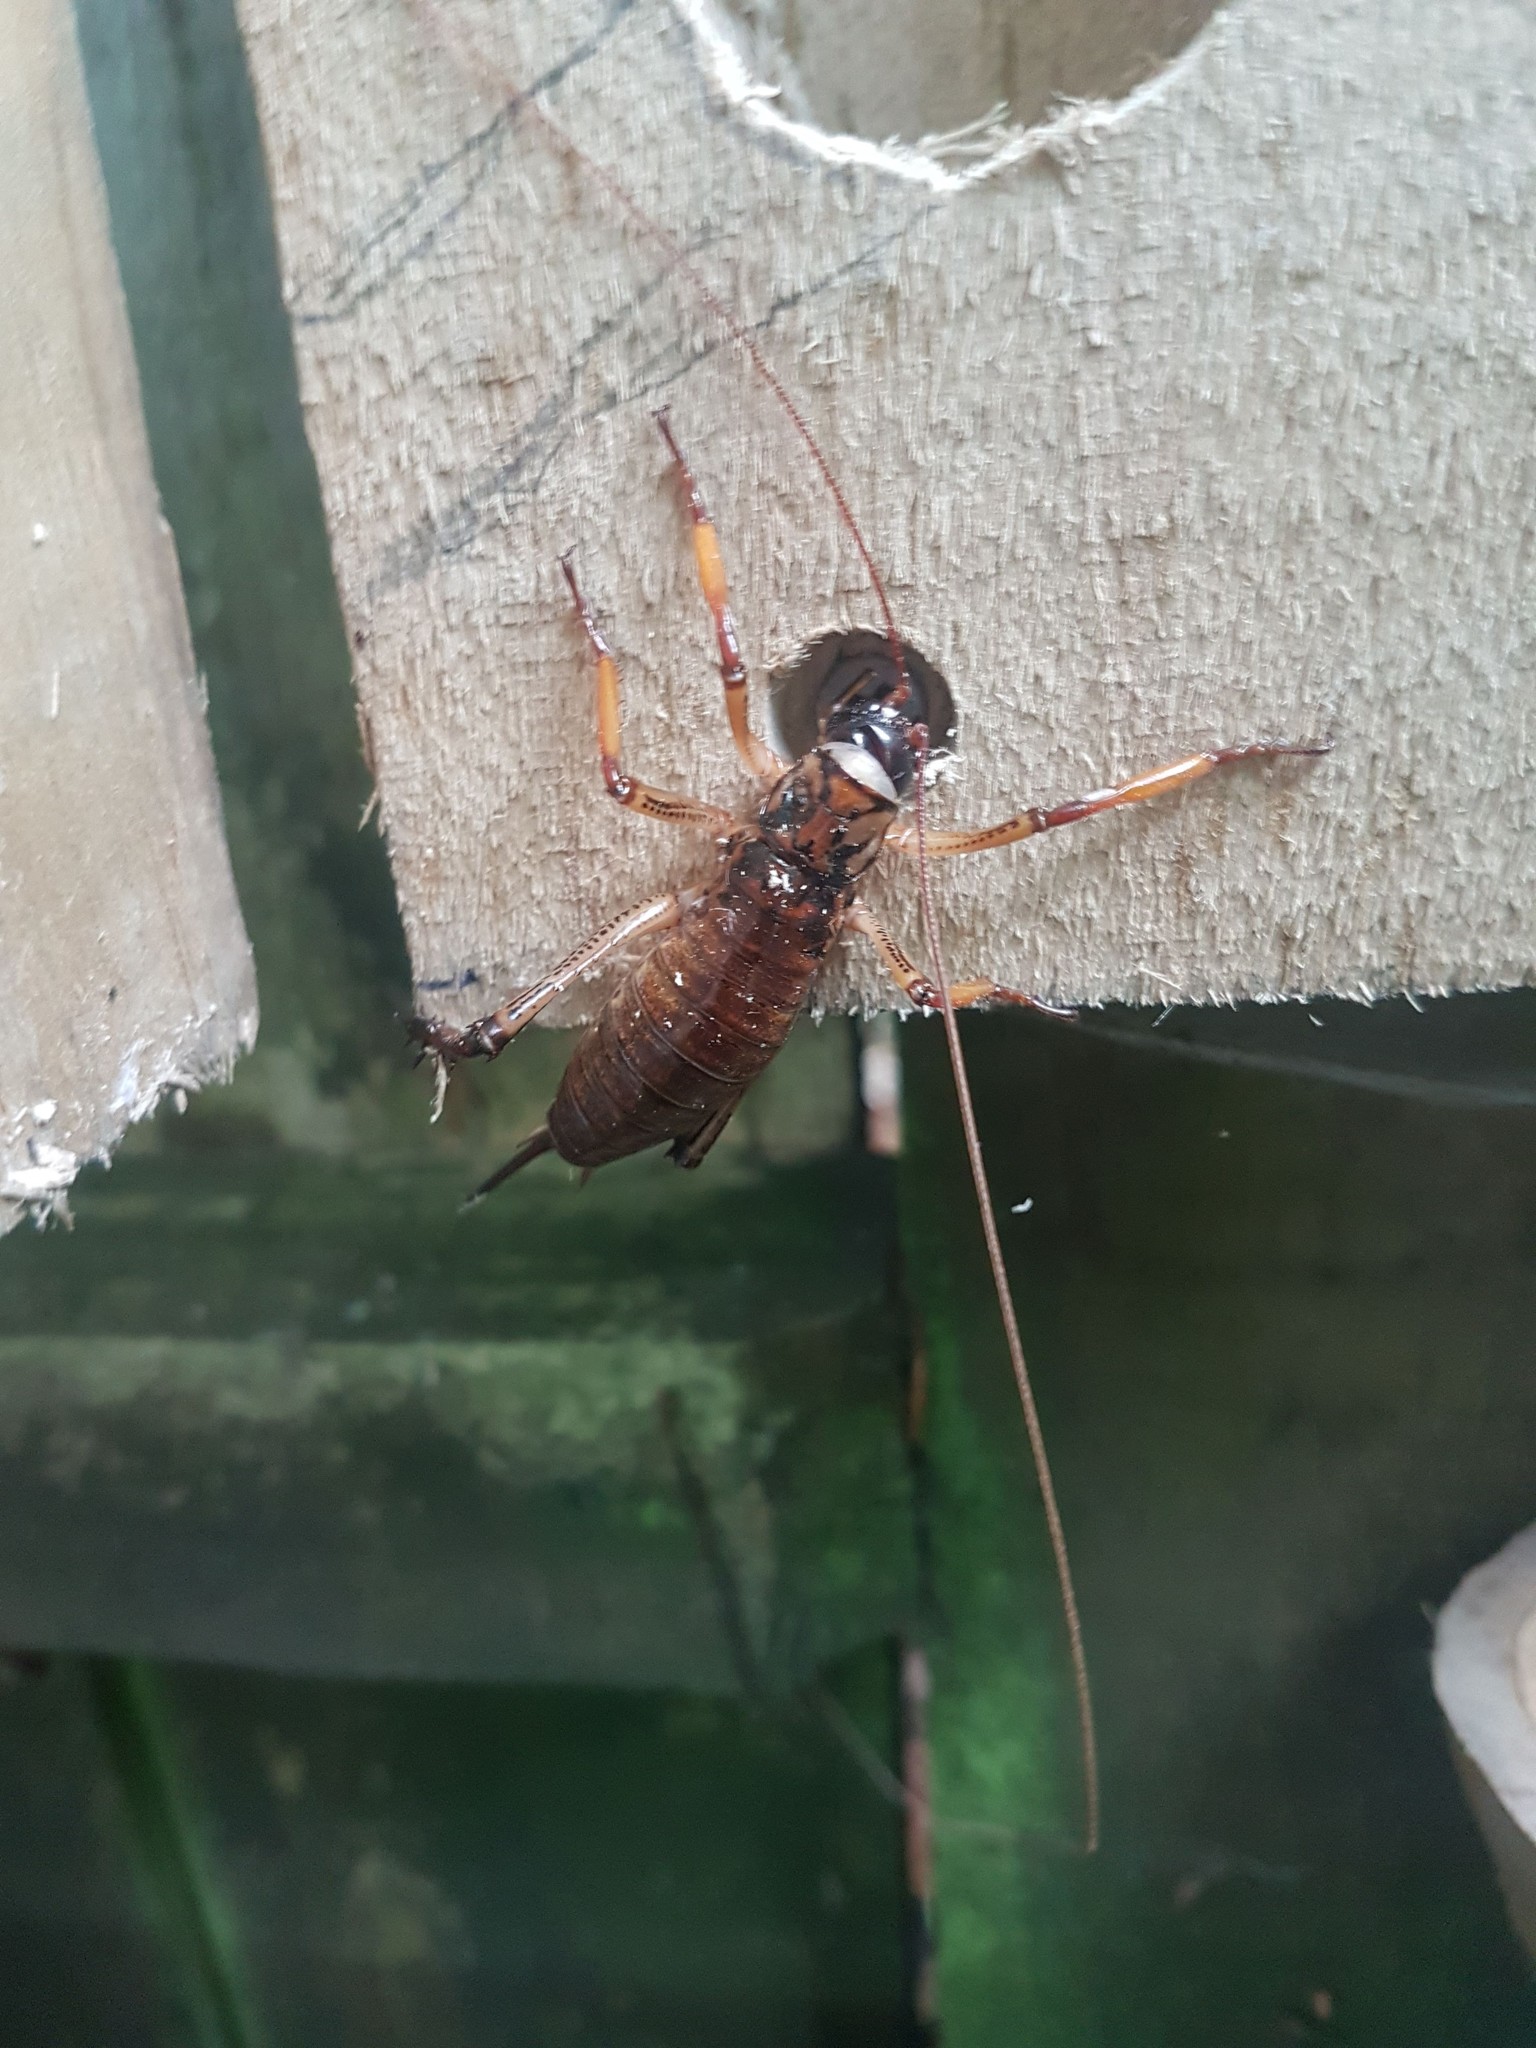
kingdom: Animalia
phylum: Arthropoda
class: Insecta
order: Orthoptera
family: Anostostomatidae
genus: Hemideina
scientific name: Hemideina thoracica
